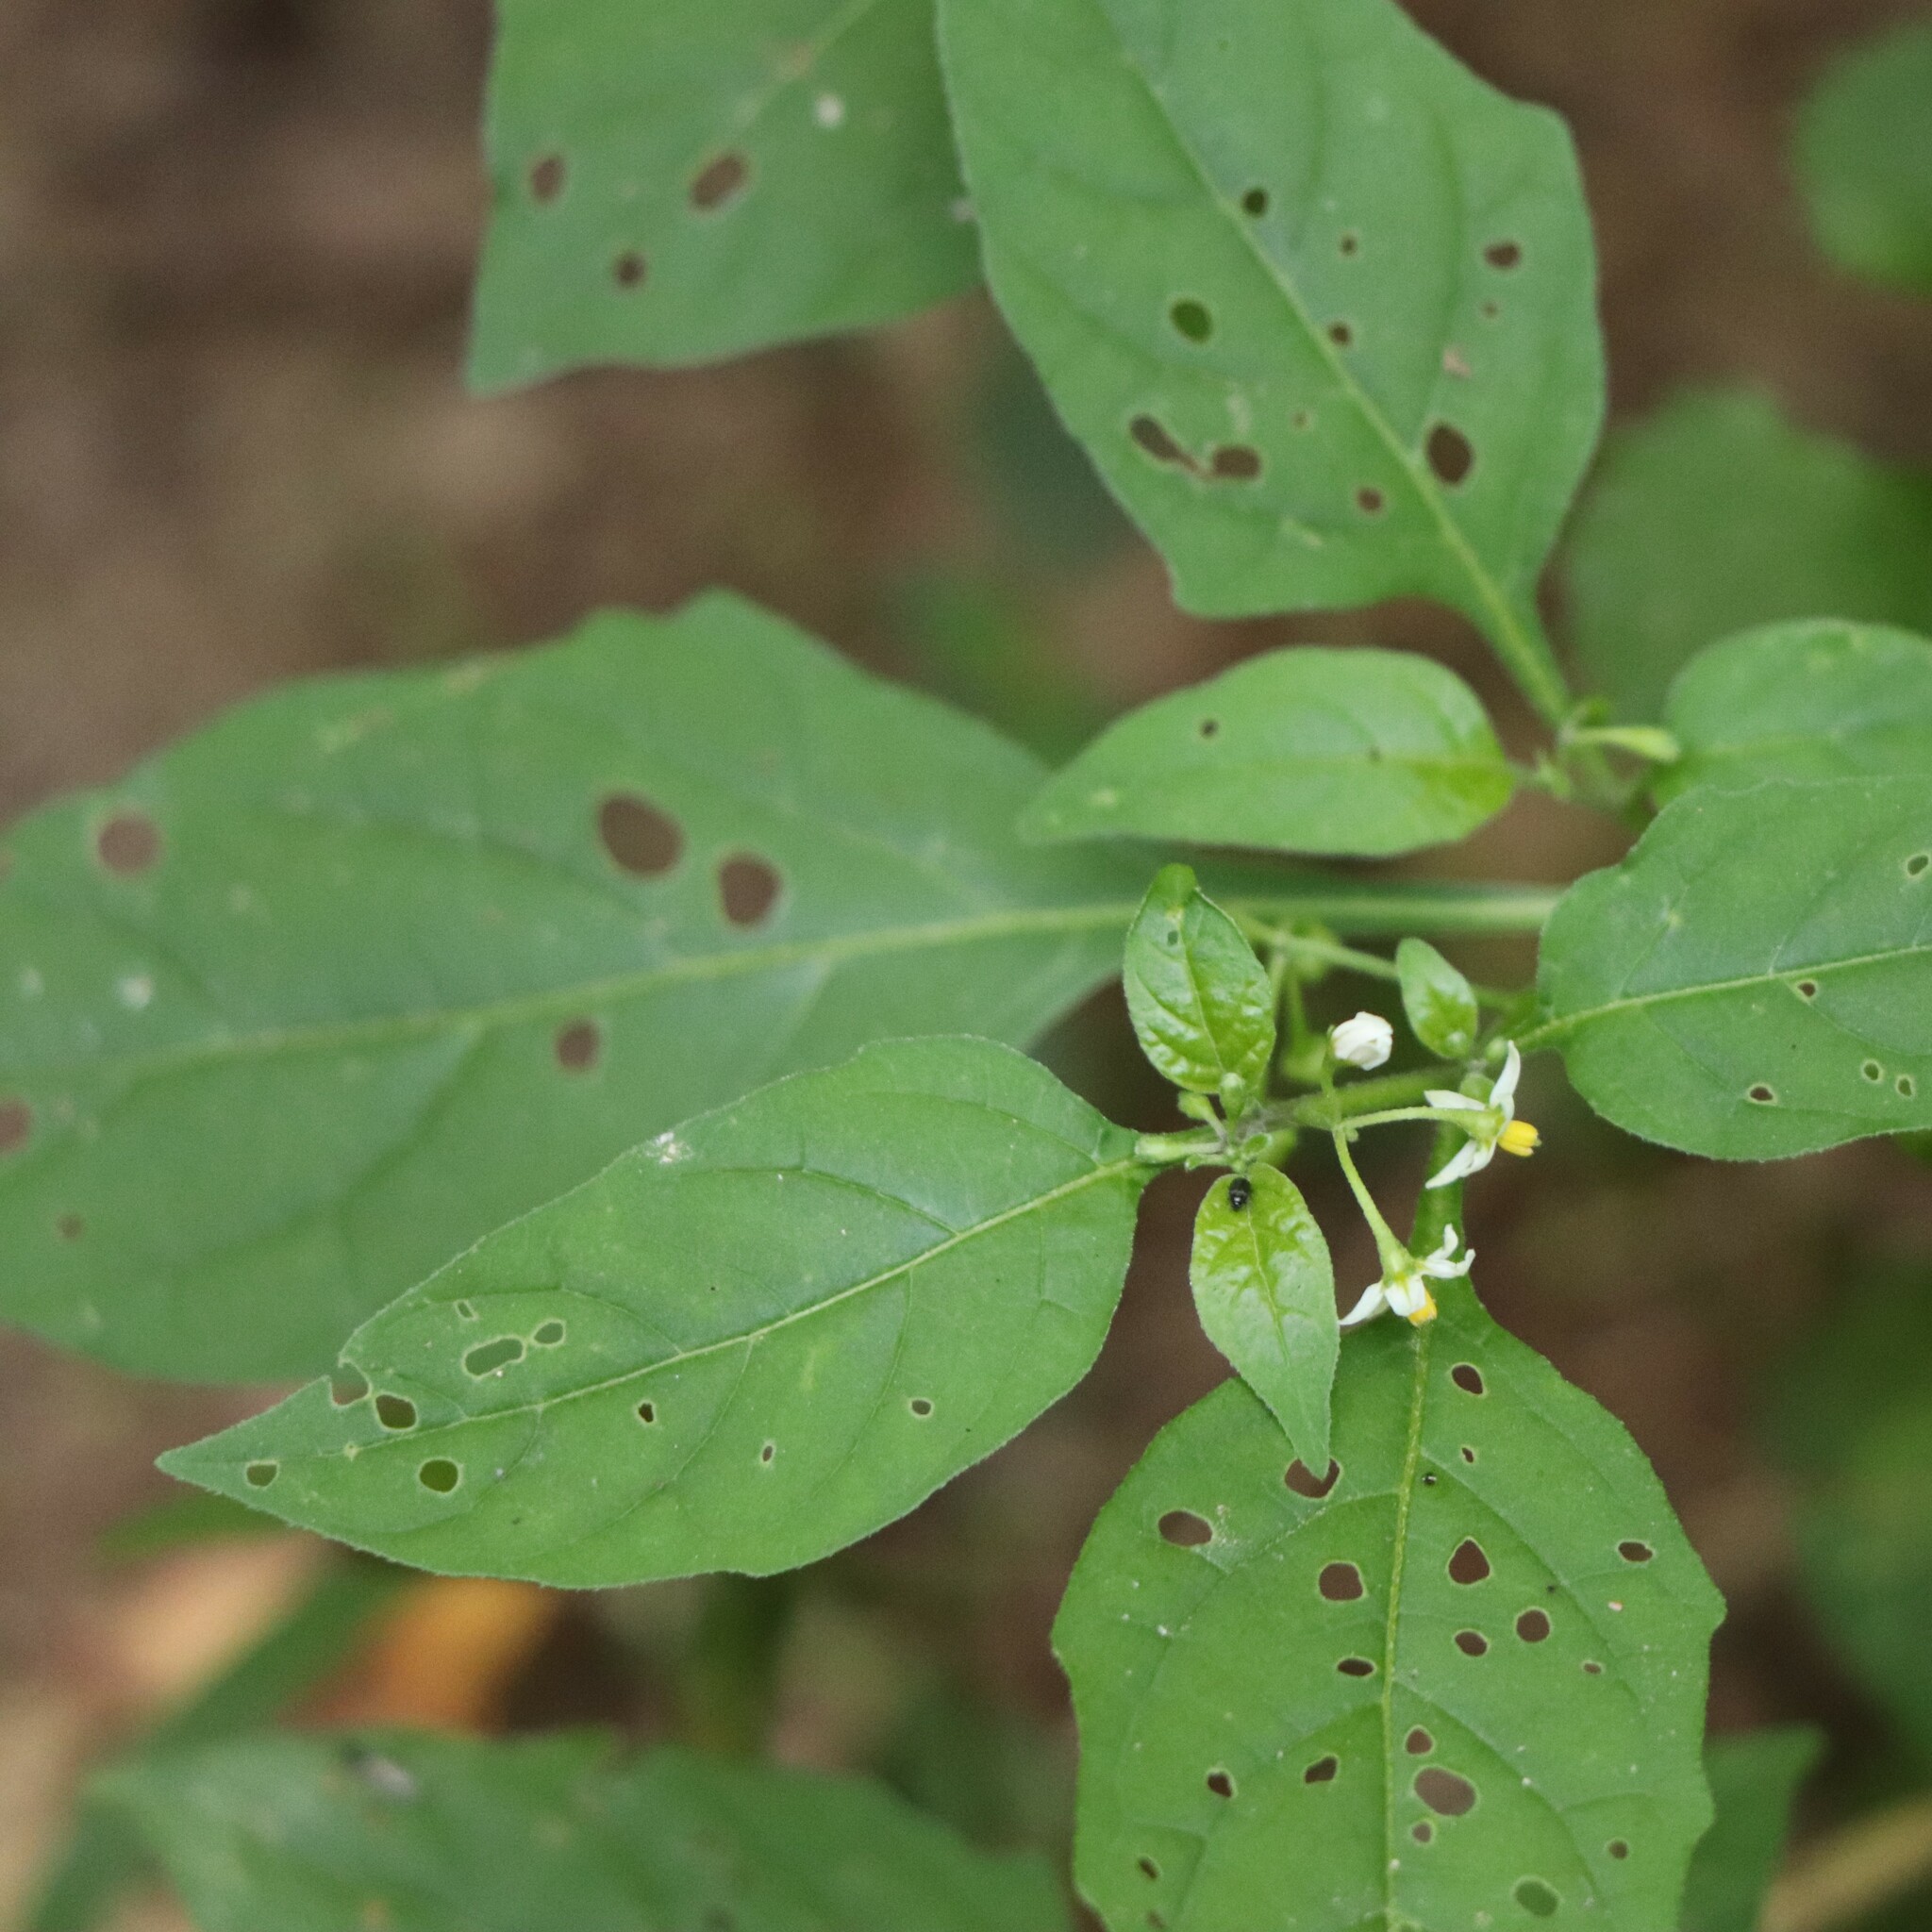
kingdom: Plantae
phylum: Tracheophyta
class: Magnoliopsida
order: Solanales
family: Solanaceae
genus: Solanum
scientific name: Solanum emulans
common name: Eastern black nightshade
